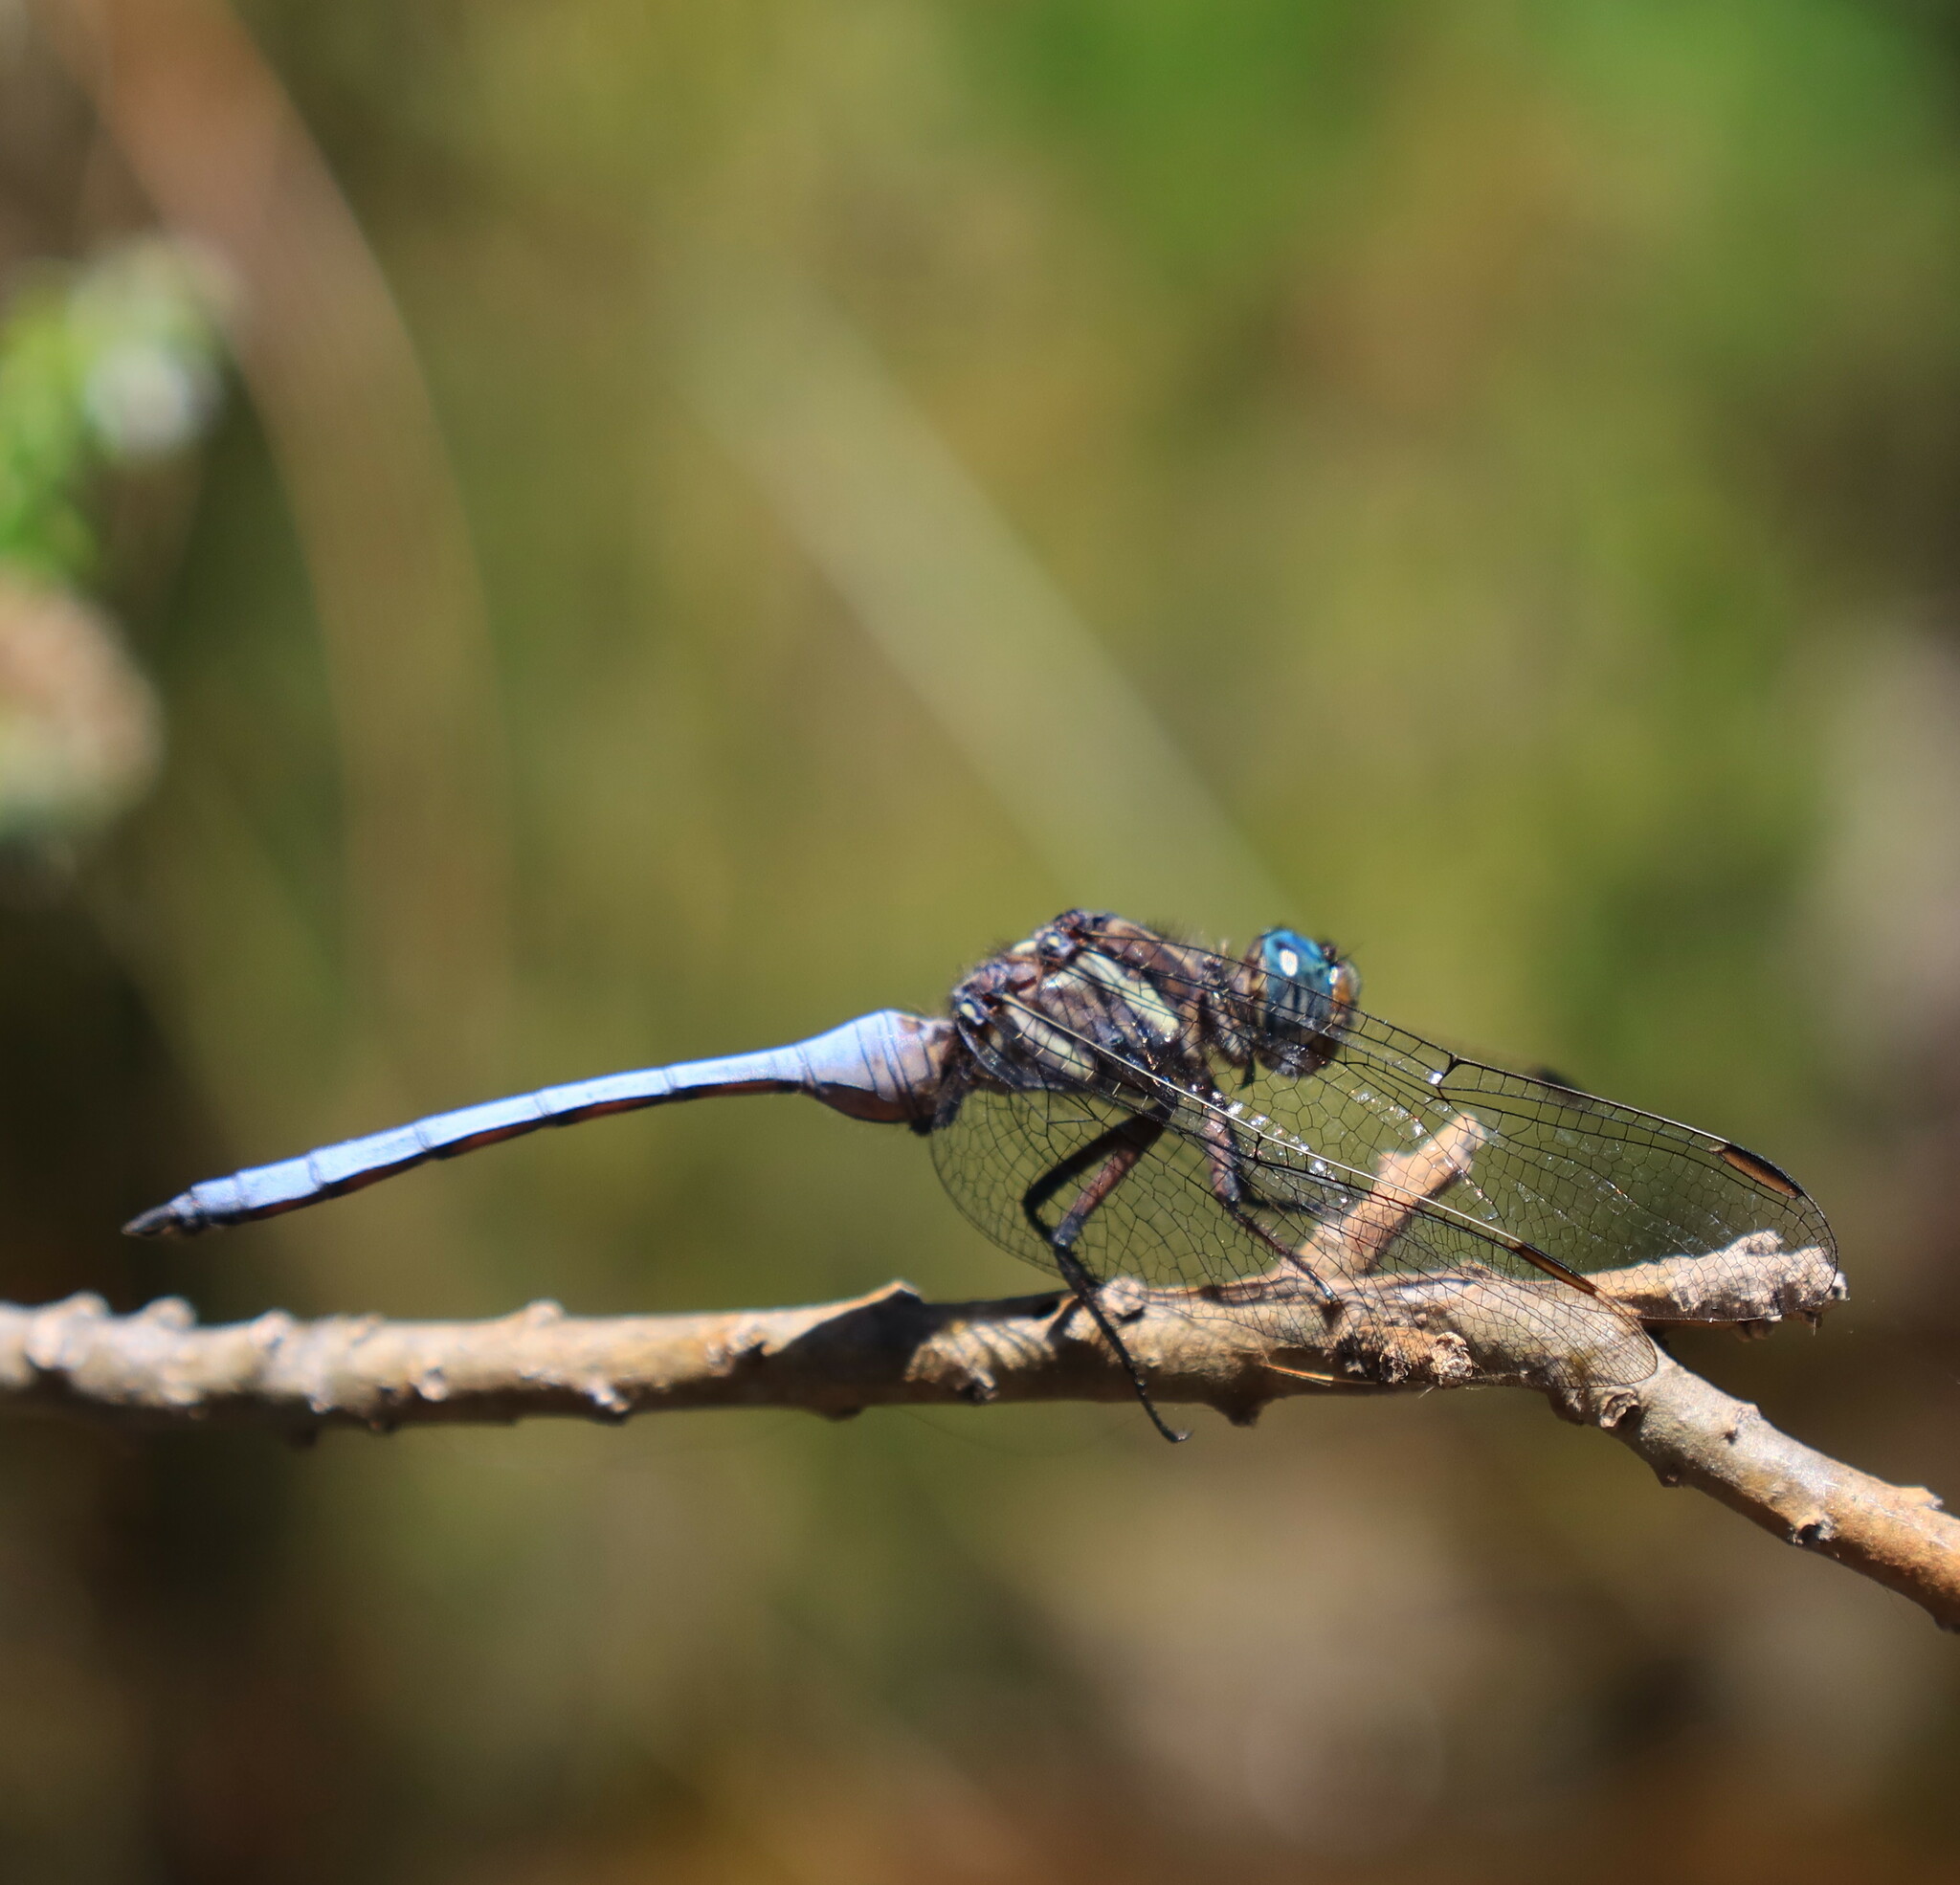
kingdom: Animalia
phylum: Arthropoda
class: Insecta
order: Odonata
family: Libellulidae
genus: Orthetrum
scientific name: Orthetrum julia
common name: Julia skimmer
